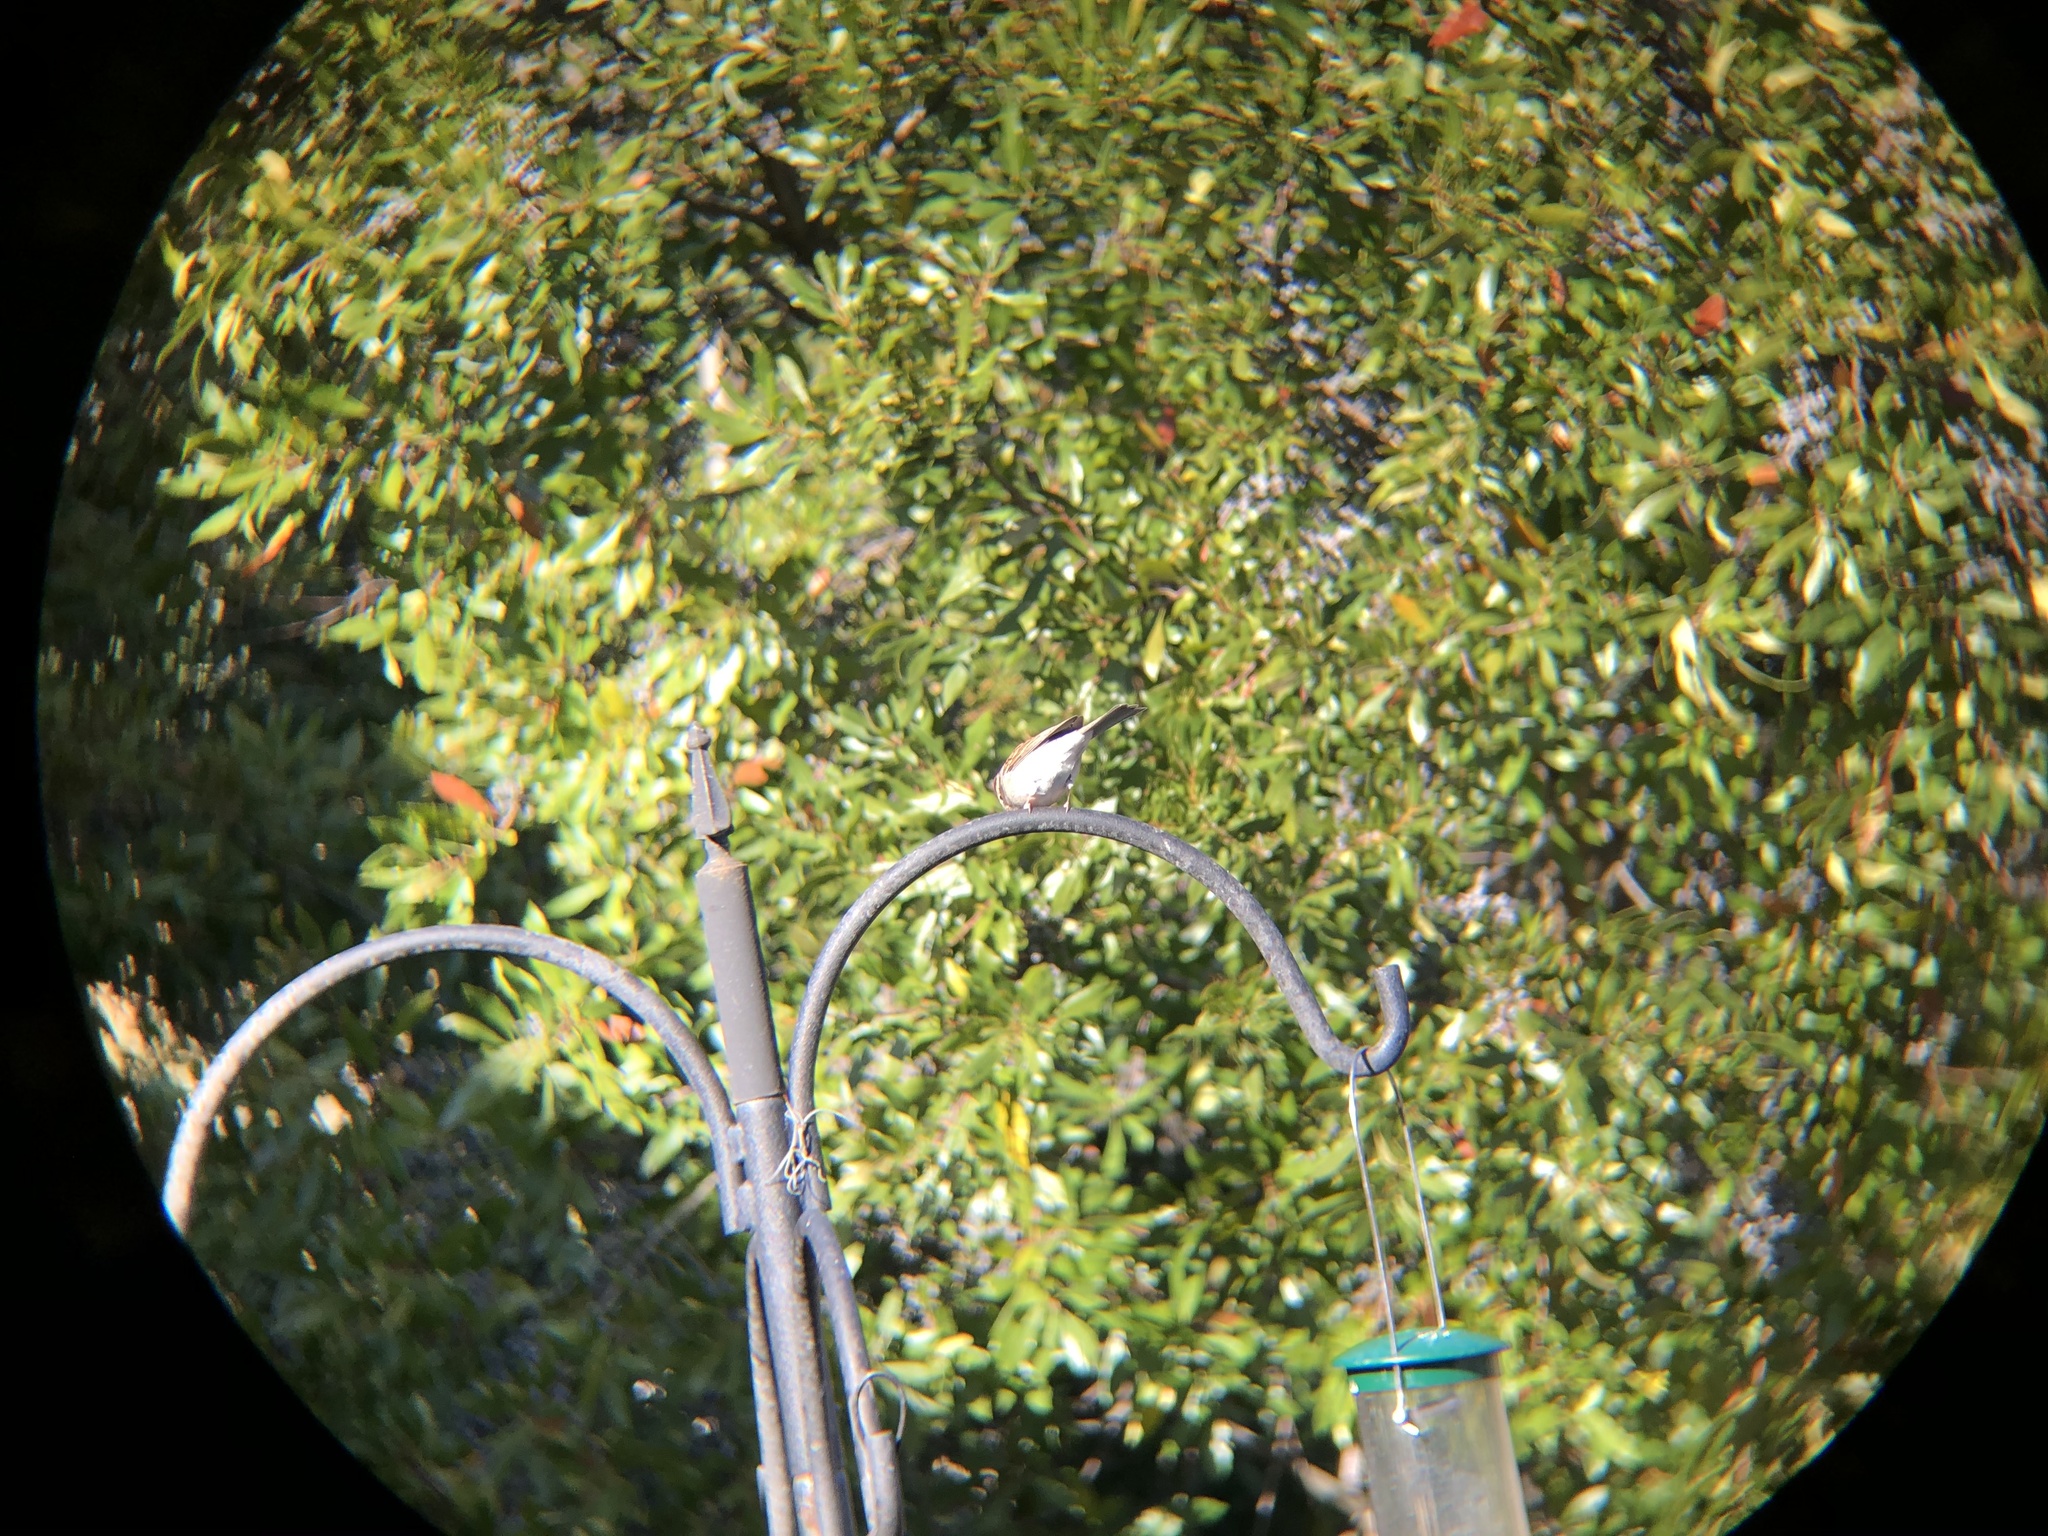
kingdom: Animalia
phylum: Chordata
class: Aves
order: Passeriformes
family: Passerellidae
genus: Spizella
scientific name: Spizella passerina
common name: Chipping sparrow
